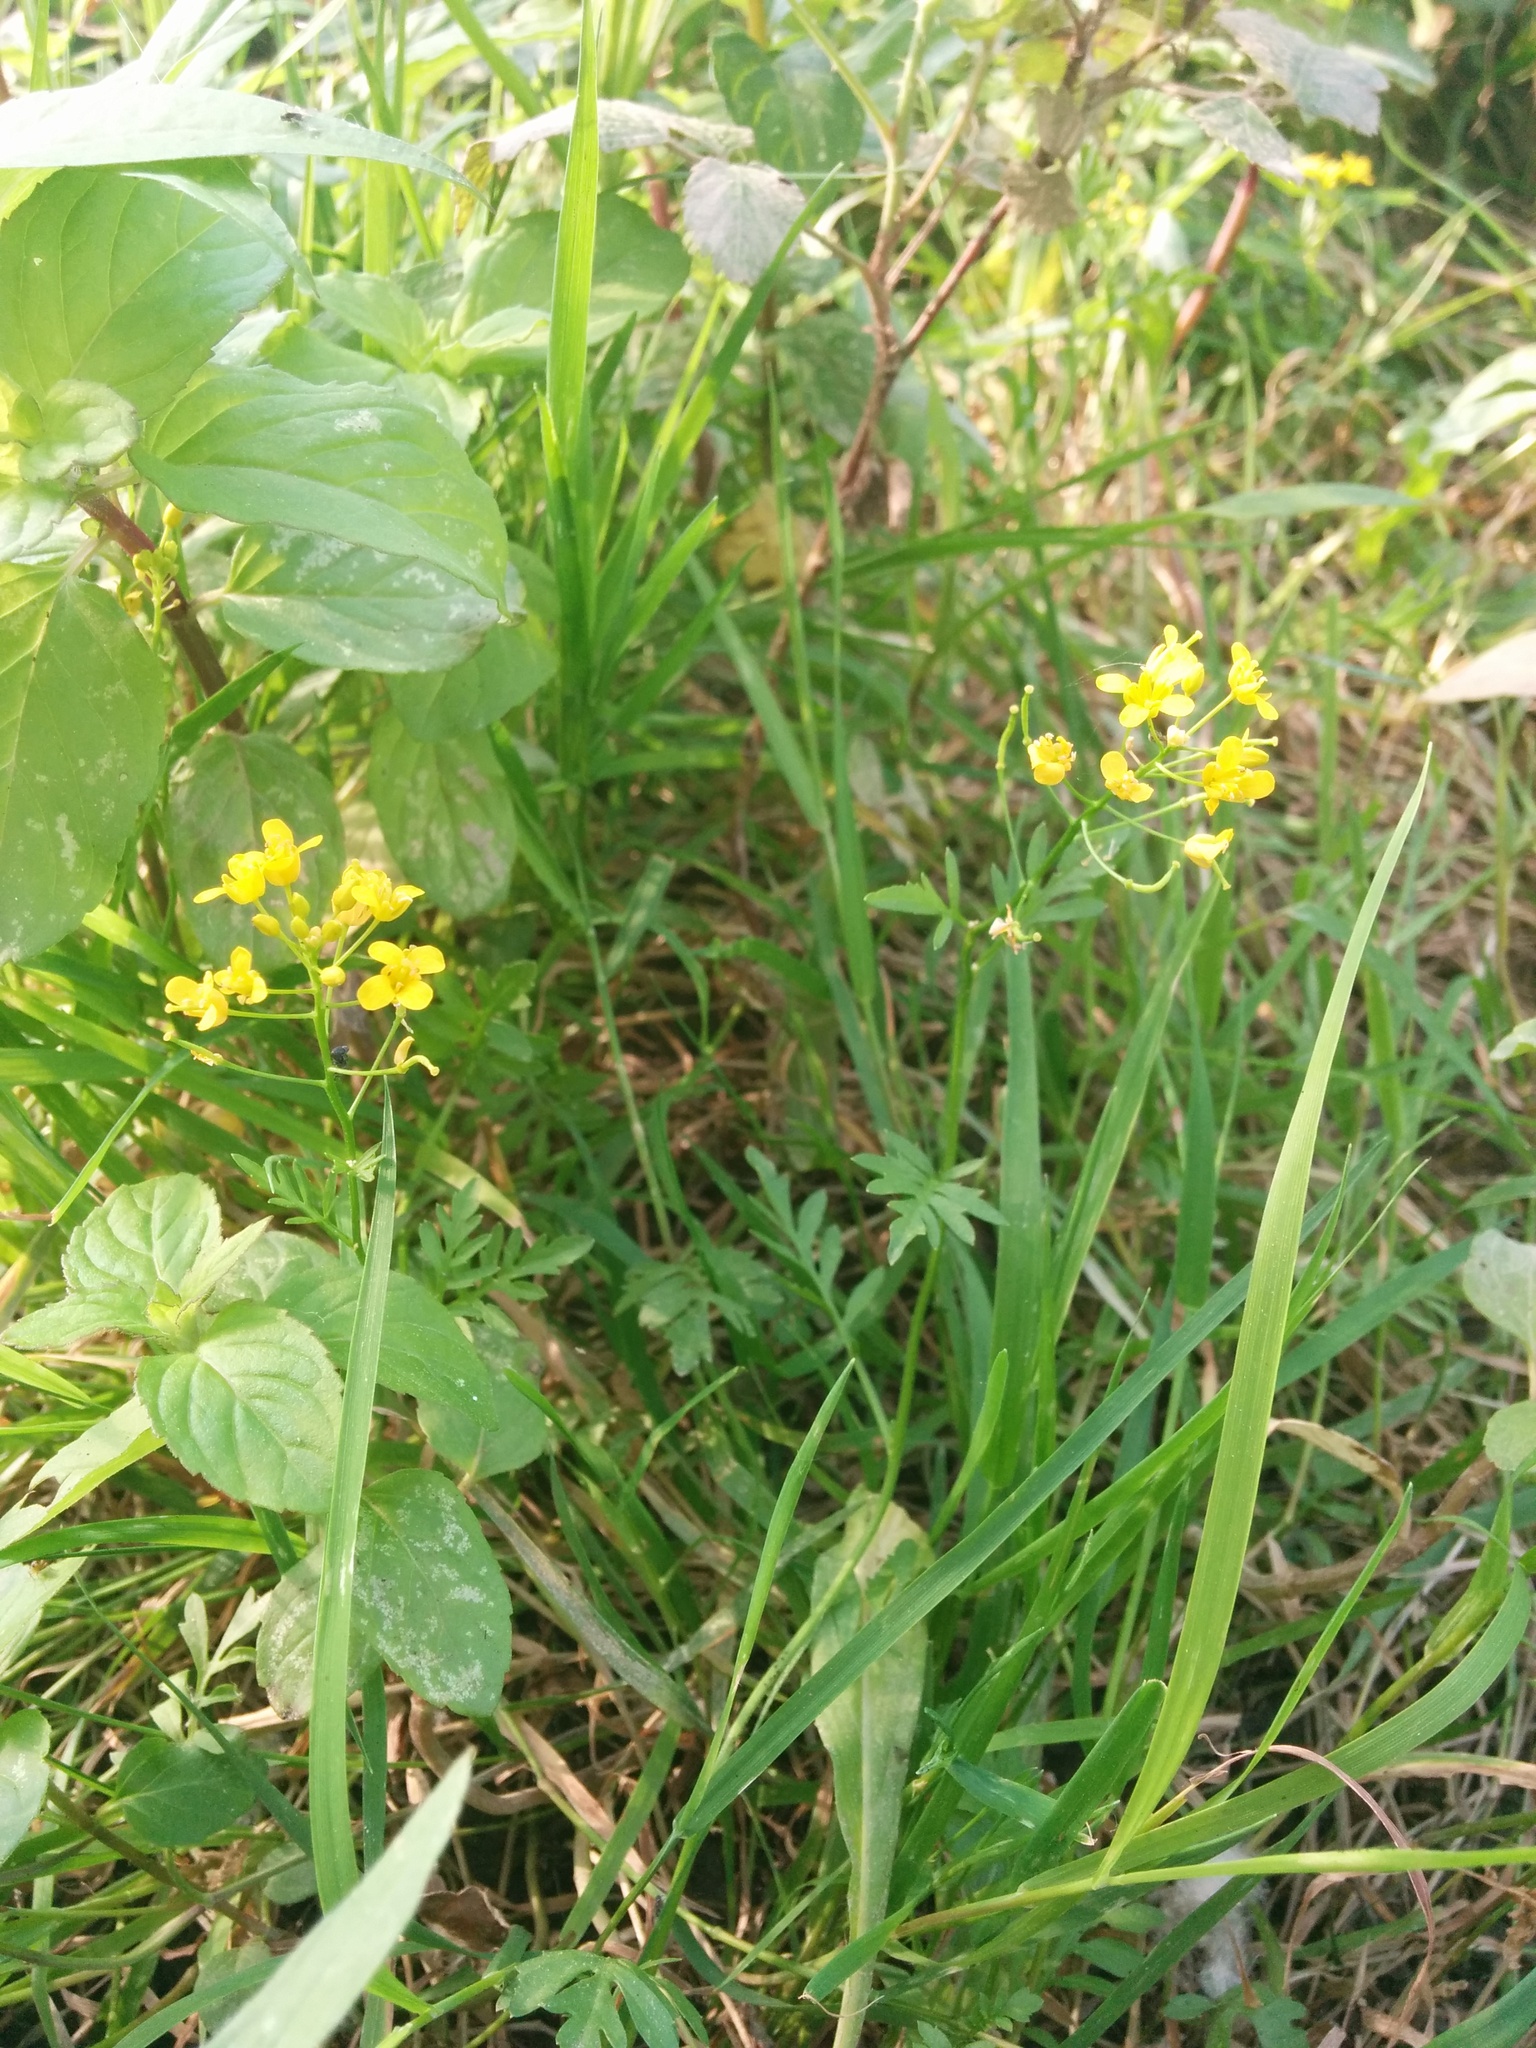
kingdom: Plantae
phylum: Tracheophyta
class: Magnoliopsida
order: Brassicales
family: Brassicaceae
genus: Rorippa
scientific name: Rorippa sylvestris
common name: Creeping yellowcress
